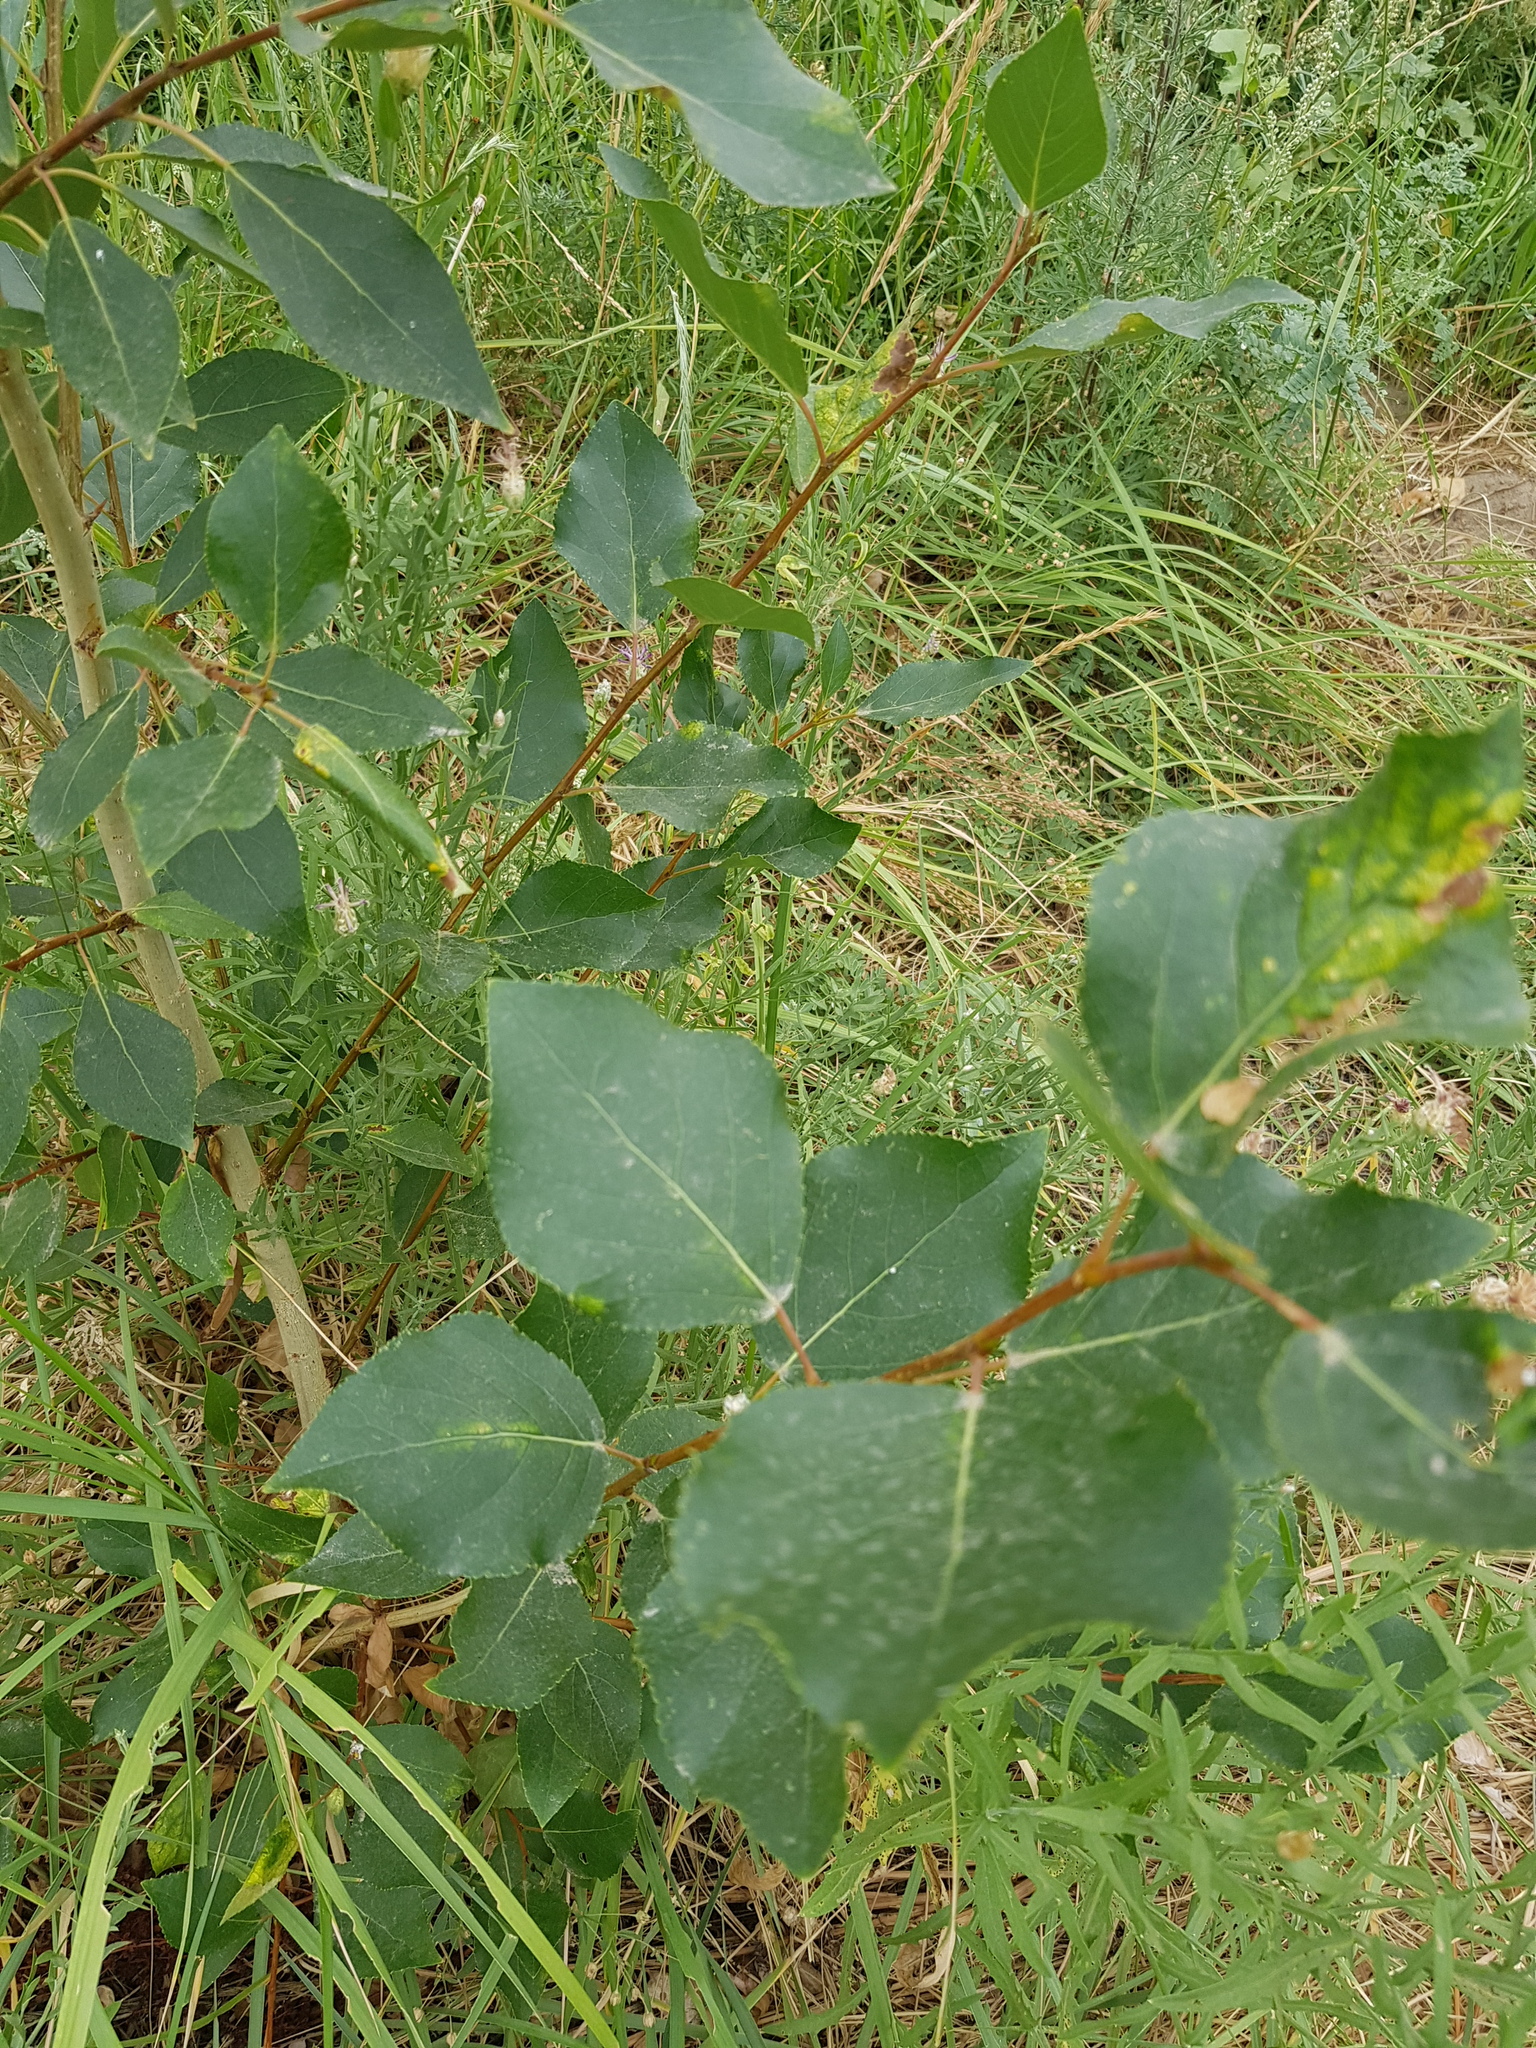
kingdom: Plantae
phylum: Tracheophyta
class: Magnoliopsida
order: Malpighiales
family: Salicaceae
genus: Populus
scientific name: Populus laurifolia
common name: Laurel-leaf poplar
